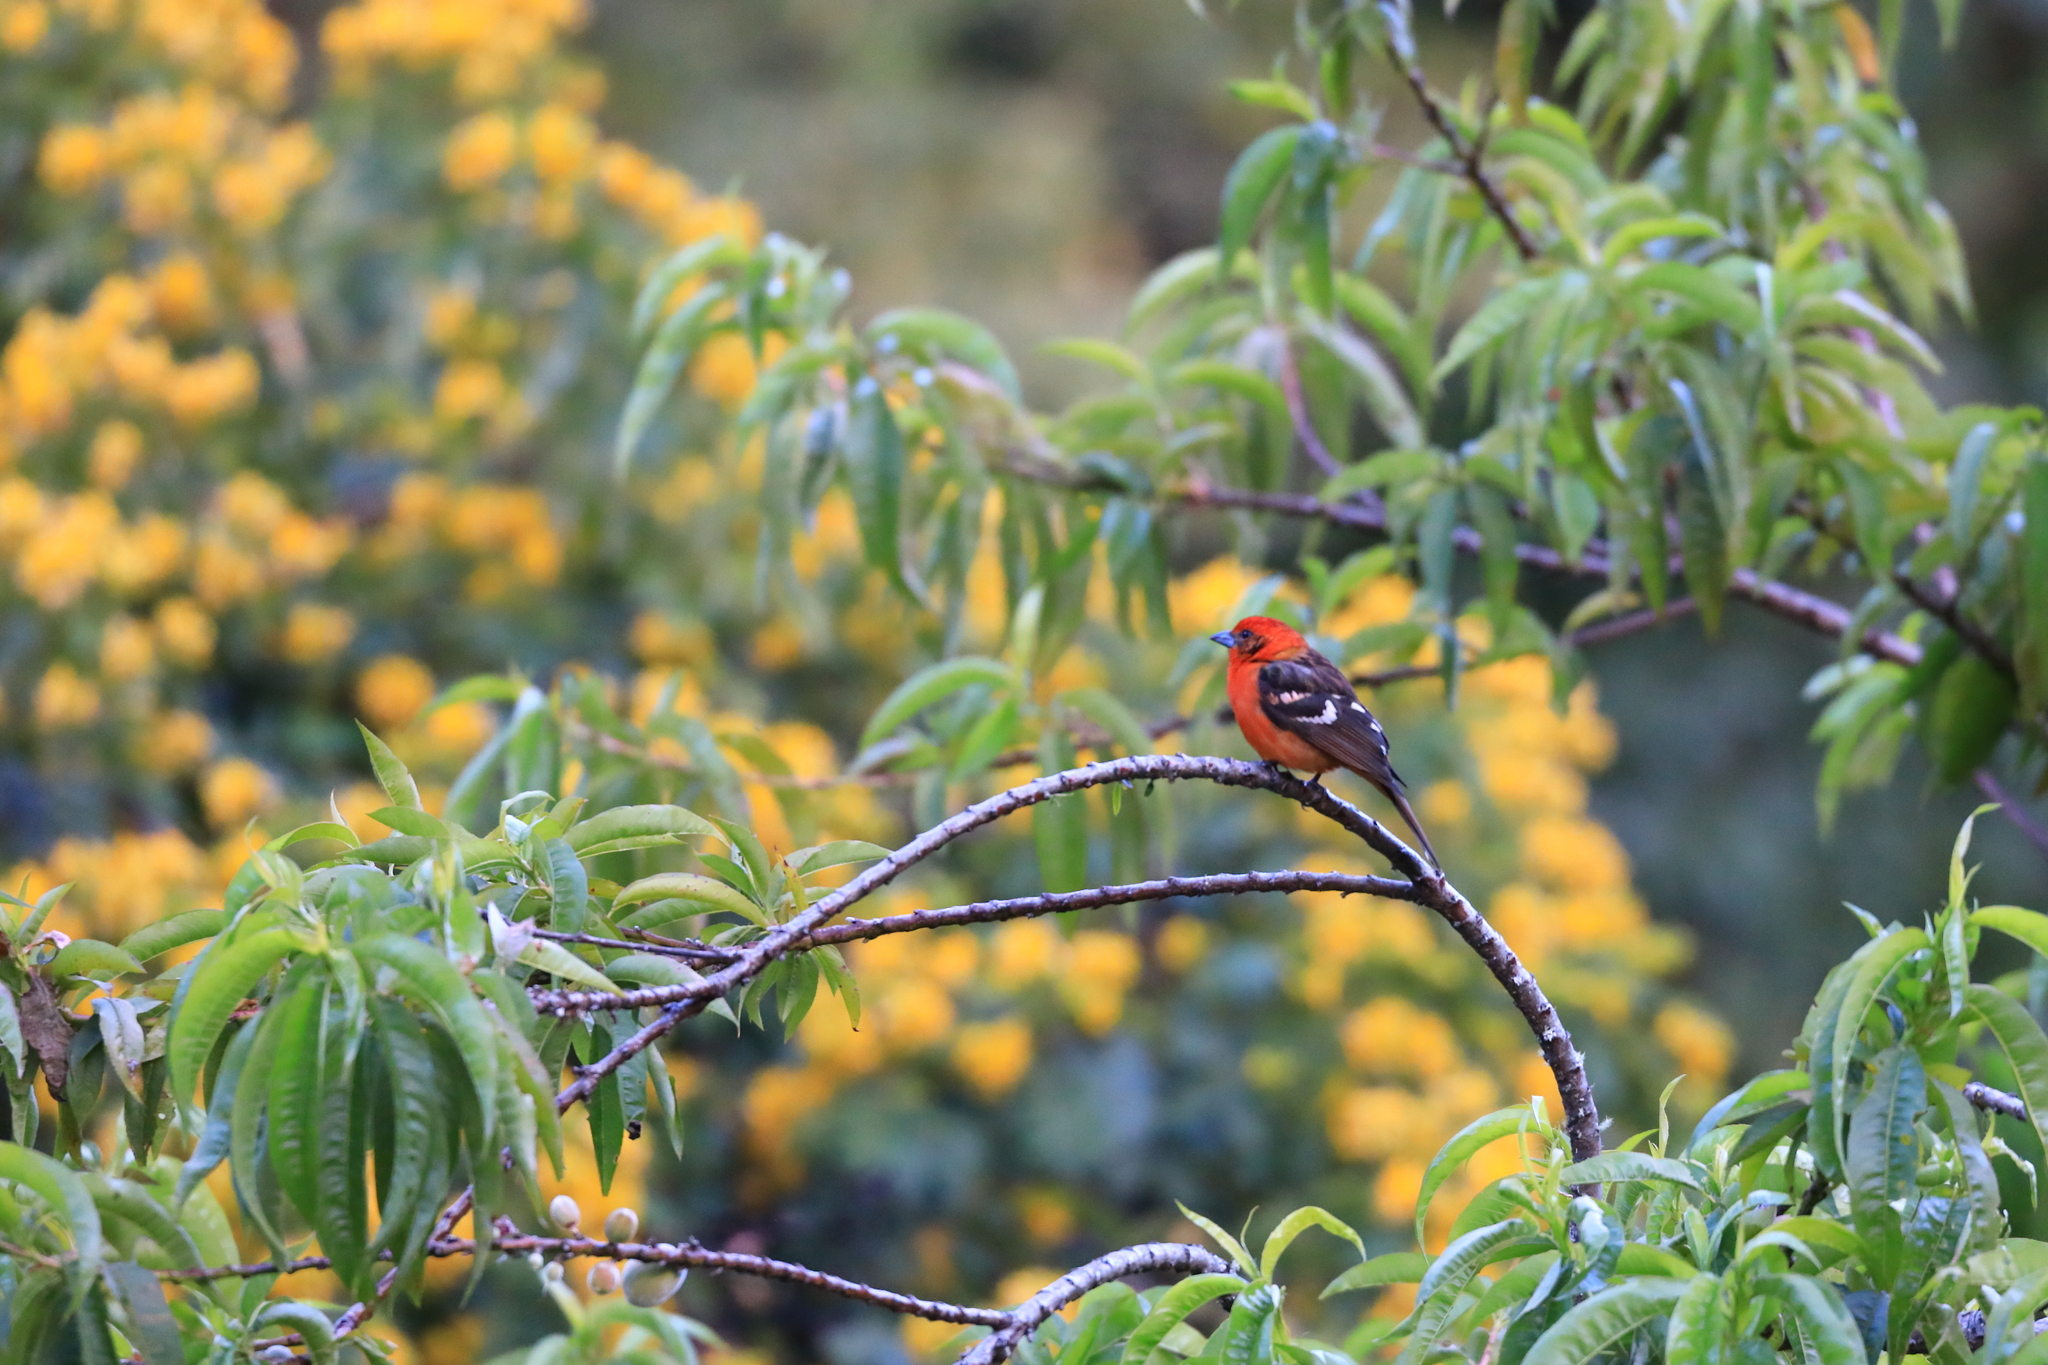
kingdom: Animalia
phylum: Chordata
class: Aves
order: Passeriformes
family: Cardinalidae
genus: Piranga
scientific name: Piranga bidentata
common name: Flame-colored tanager
